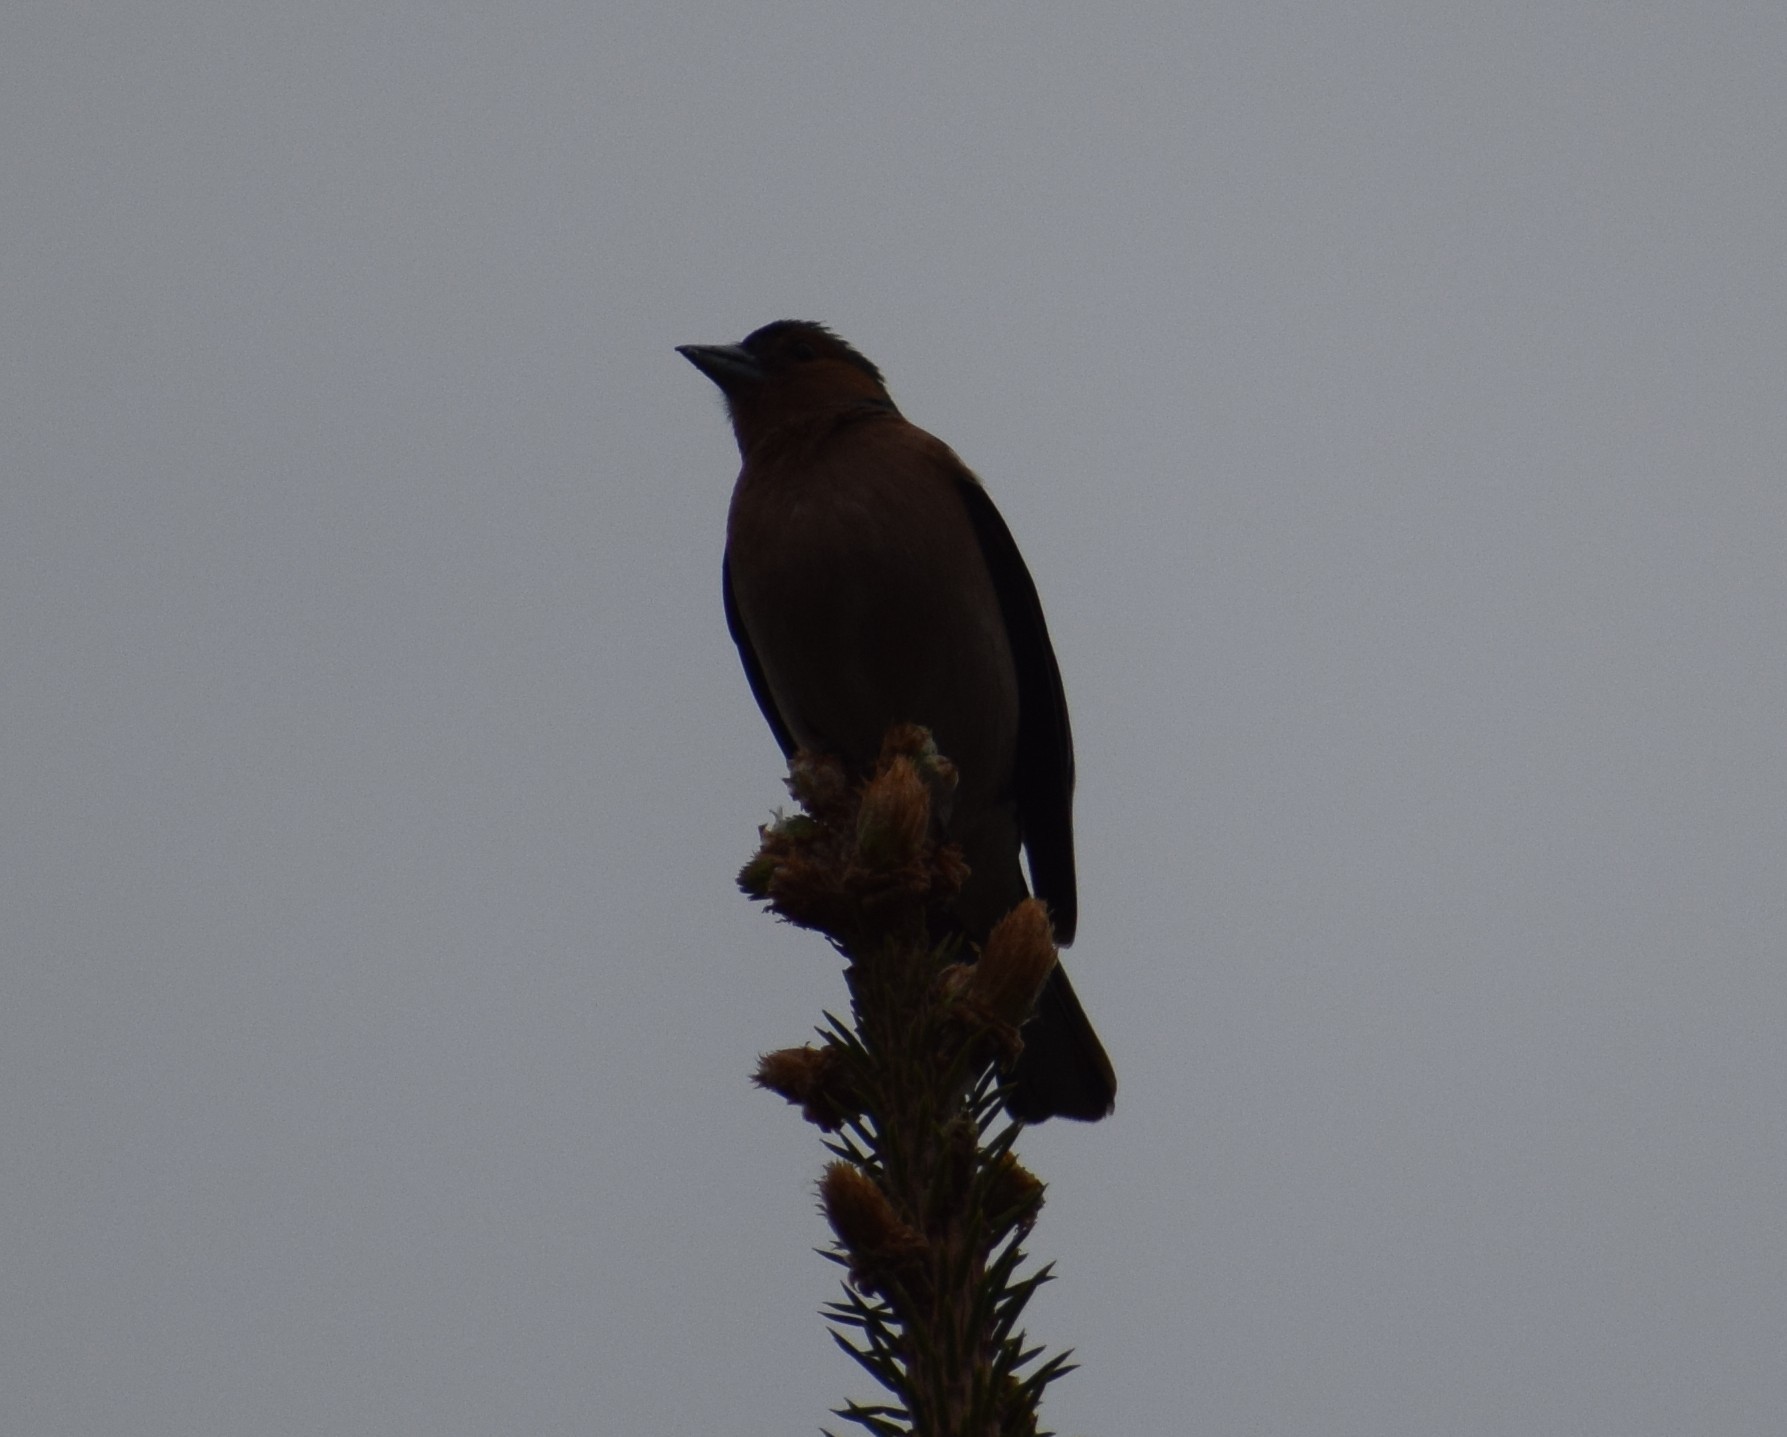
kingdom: Animalia
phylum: Chordata
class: Aves
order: Passeriformes
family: Fringillidae
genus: Fringilla
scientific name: Fringilla coelebs
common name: Common chaffinch
